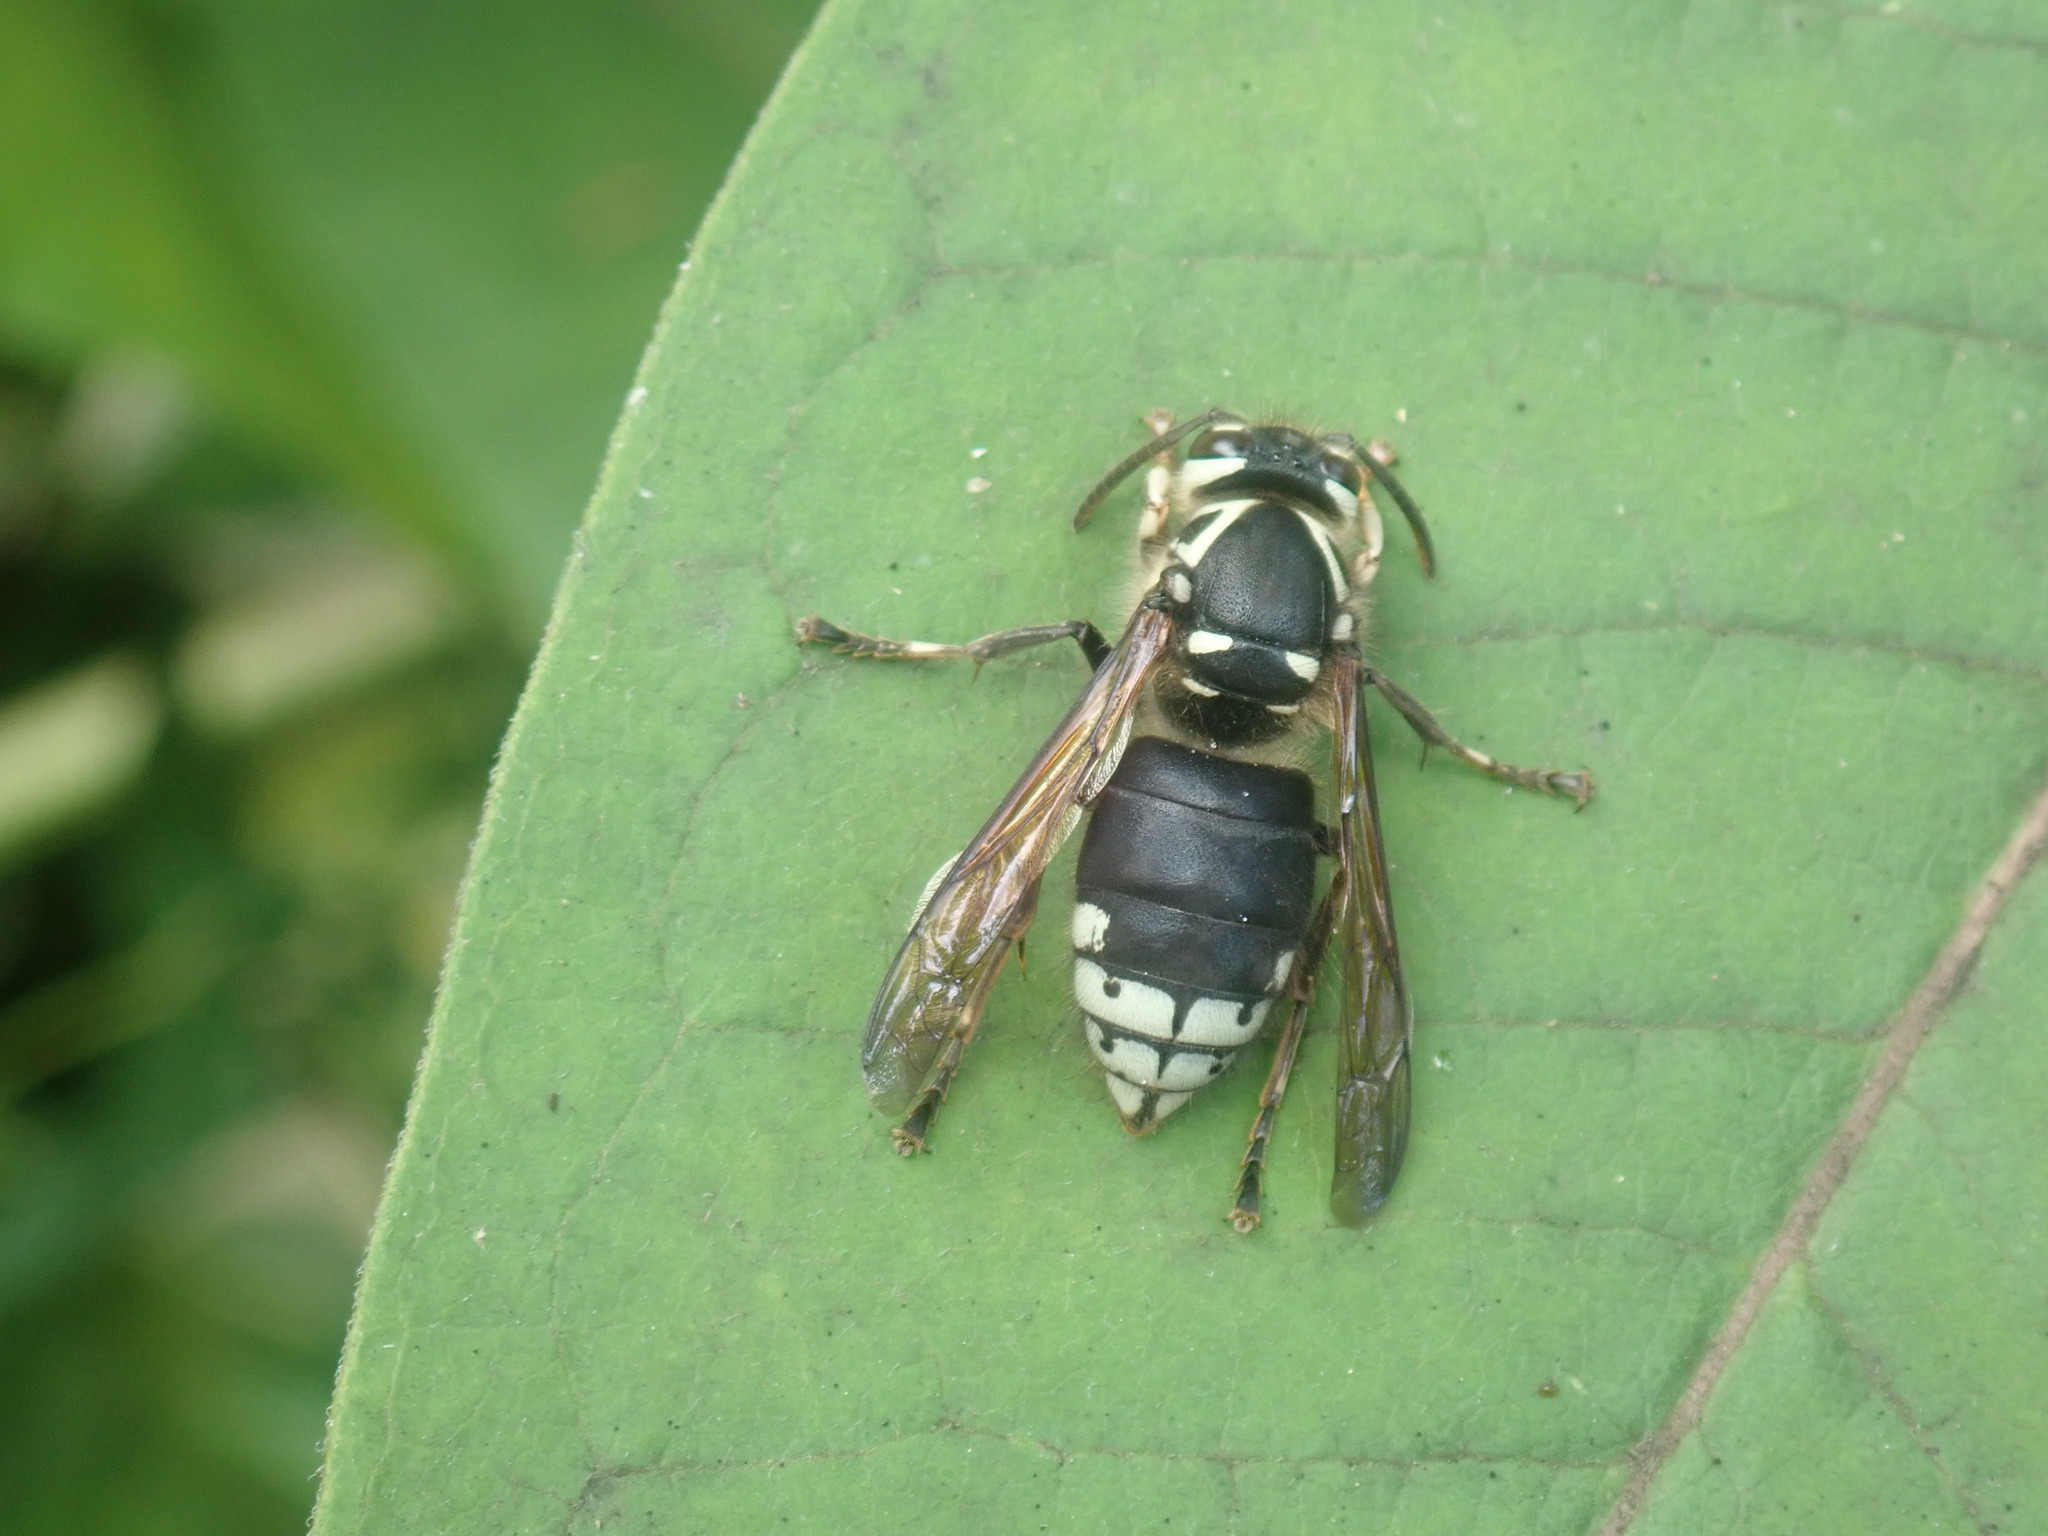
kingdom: Animalia
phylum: Arthropoda
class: Insecta
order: Hymenoptera
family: Vespidae
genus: Dolichovespula
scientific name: Dolichovespula maculata
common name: Bald-faced hornet
